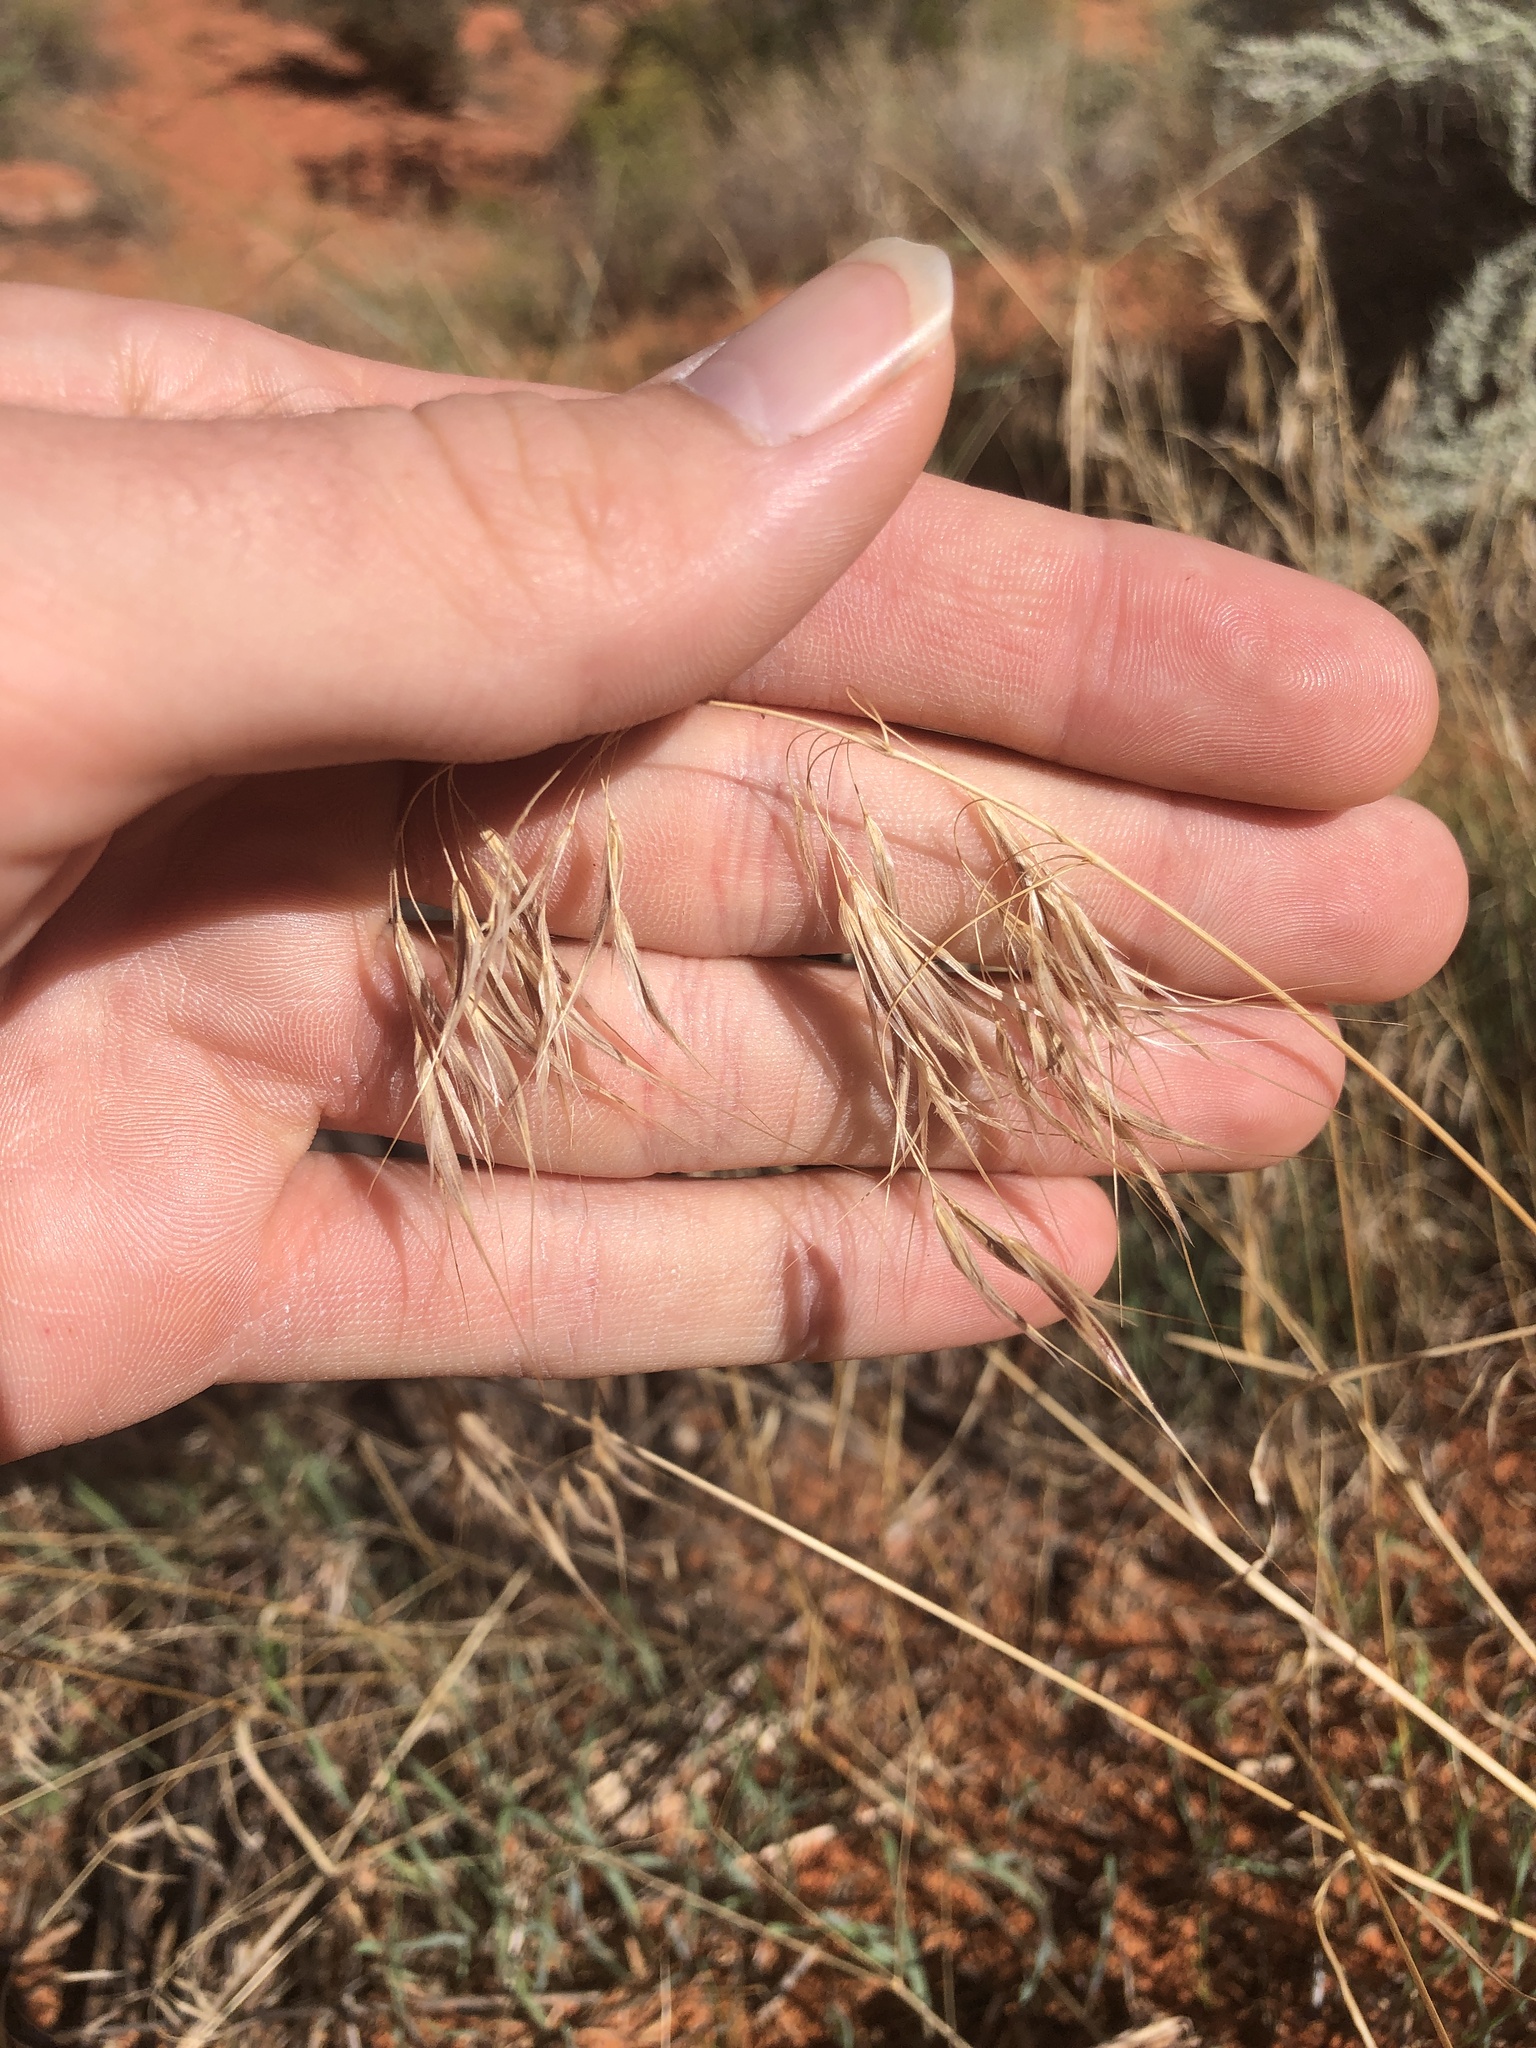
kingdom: Plantae
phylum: Tracheophyta
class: Liliopsida
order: Poales
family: Poaceae
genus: Bromus
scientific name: Bromus tectorum
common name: Cheatgrass
